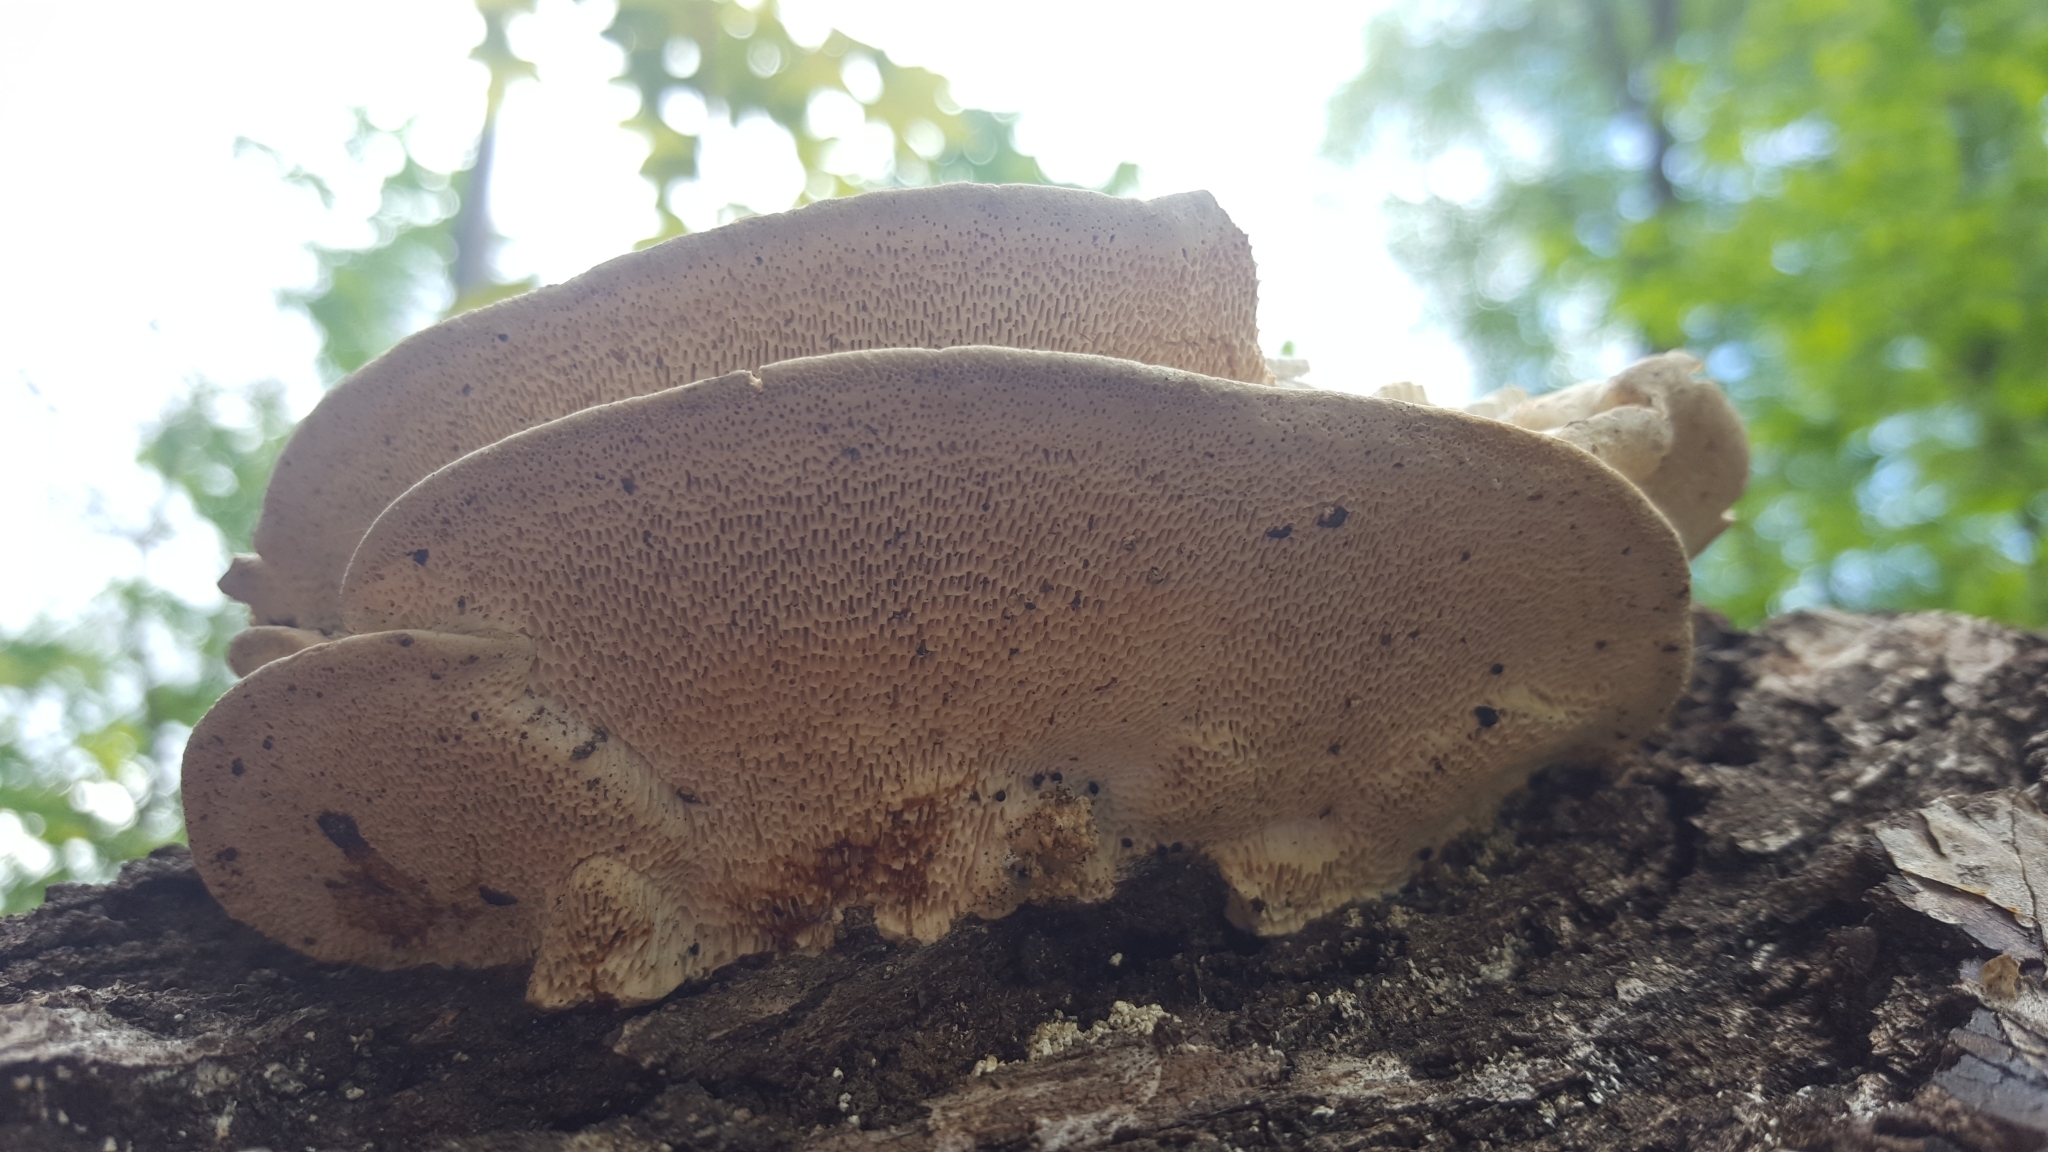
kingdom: Fungi
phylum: Basidiomycota
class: Agaricomycetes
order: Polyporales
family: Polyporaceae
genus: Trametes
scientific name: Trametes gibbosa
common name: Lumpy bracket
